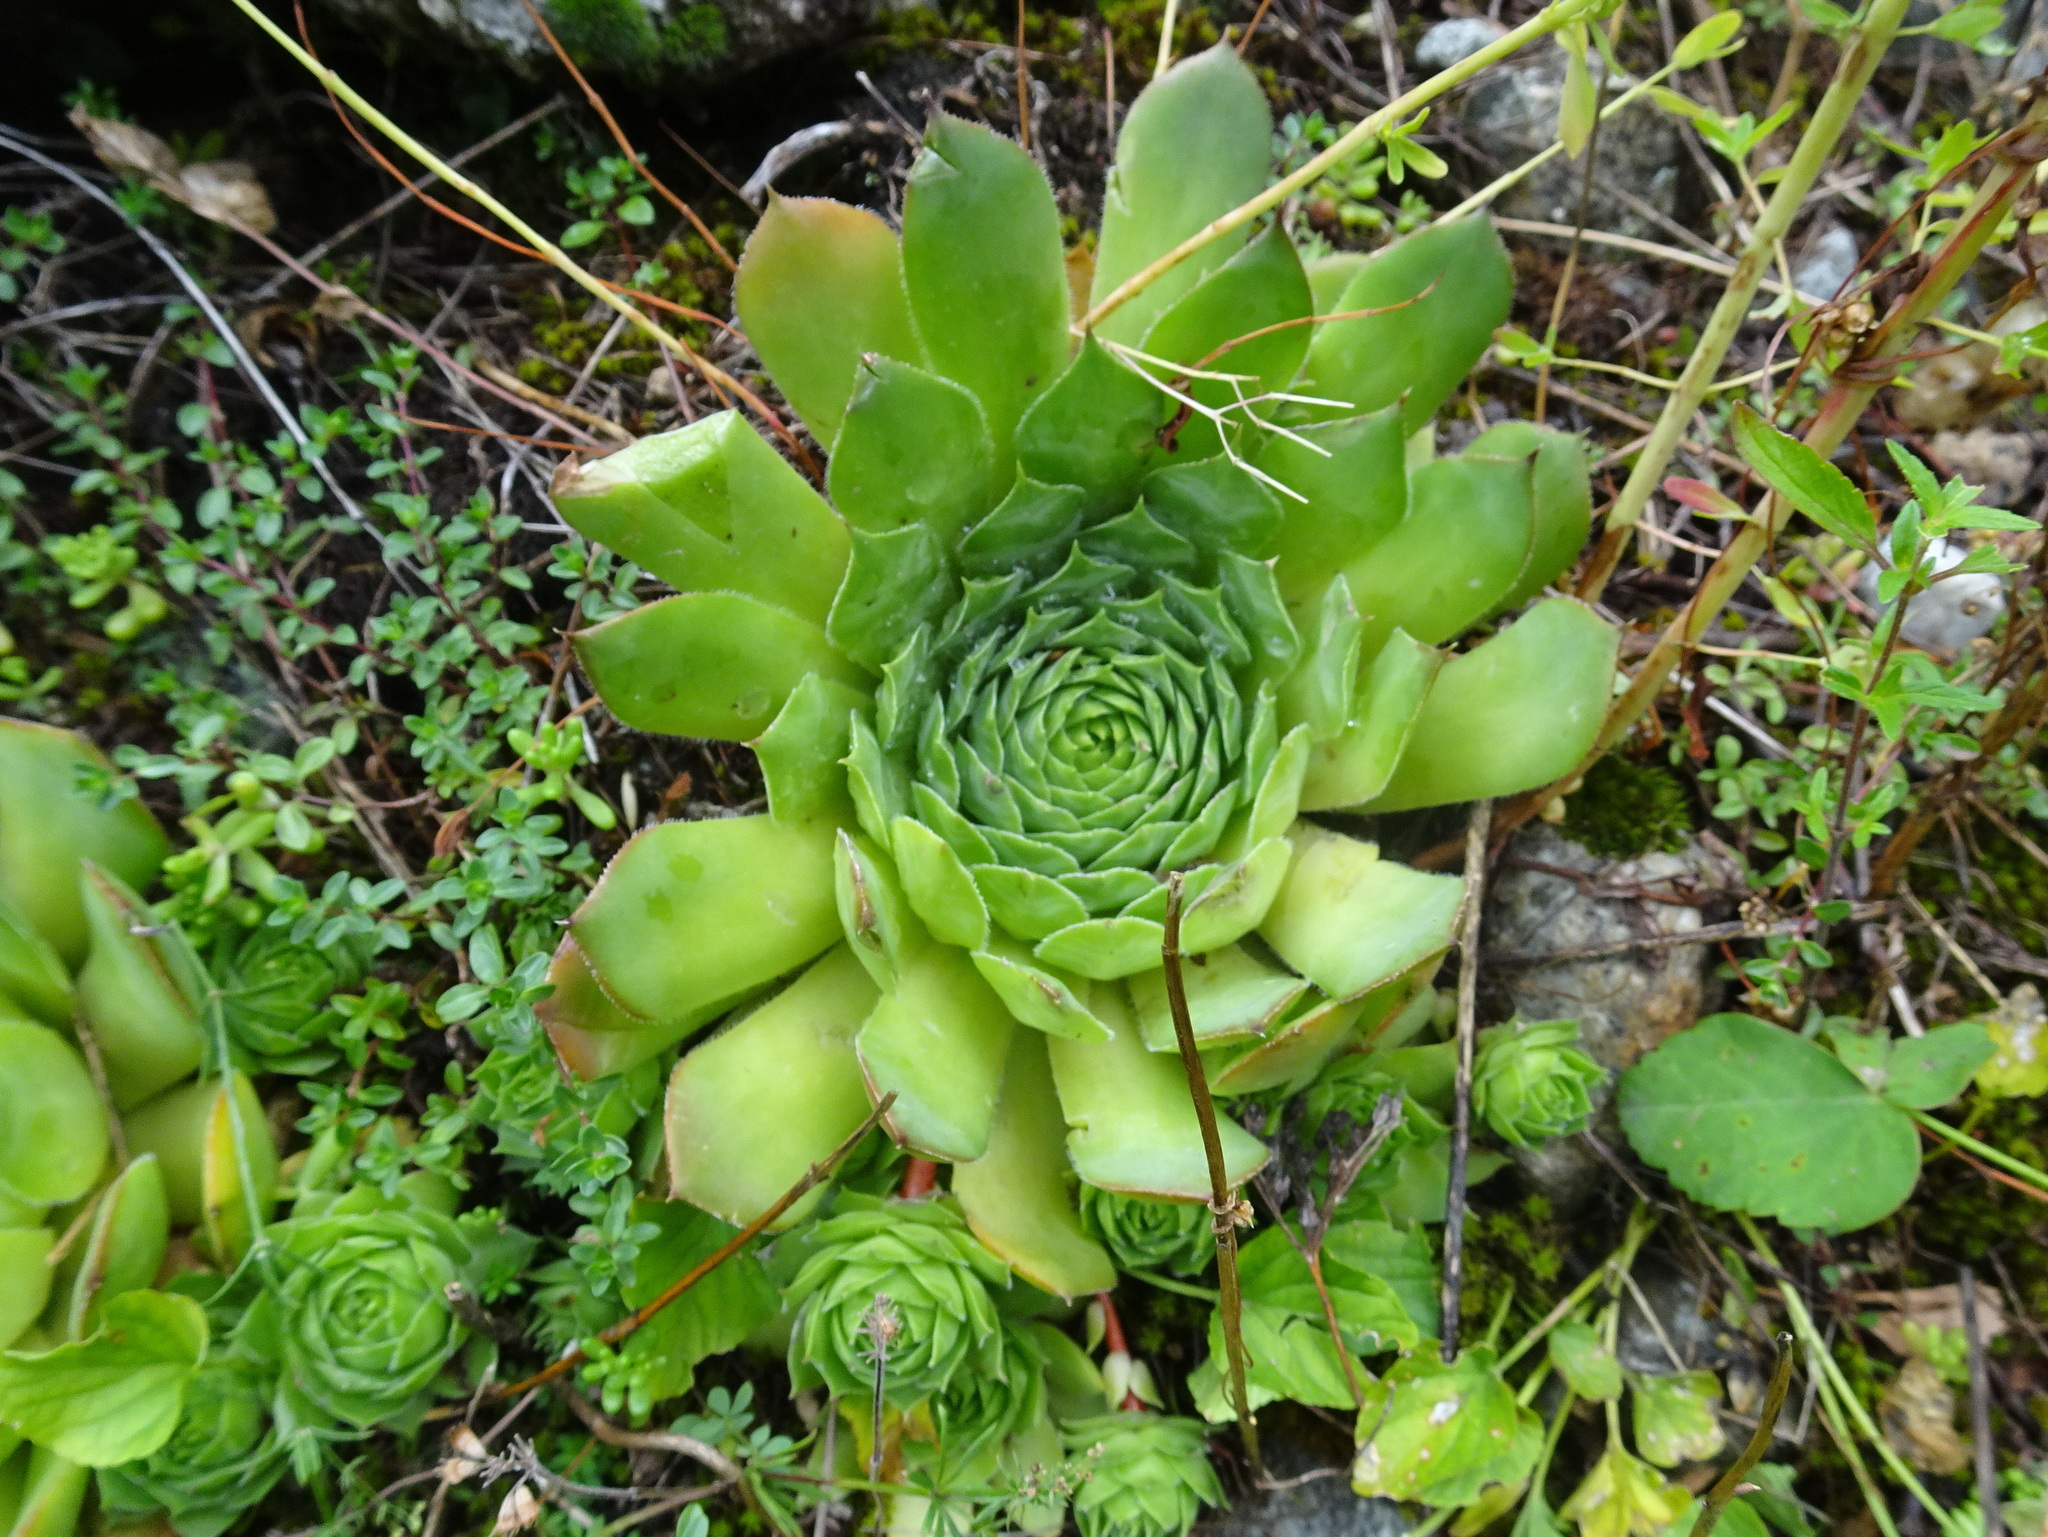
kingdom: Plantae
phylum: Tracheophyta
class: Magnoliopsida
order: Saxifragales
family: Crassulaceae
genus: Sempervivum
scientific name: Sempervivum tectorum
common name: House-leek
